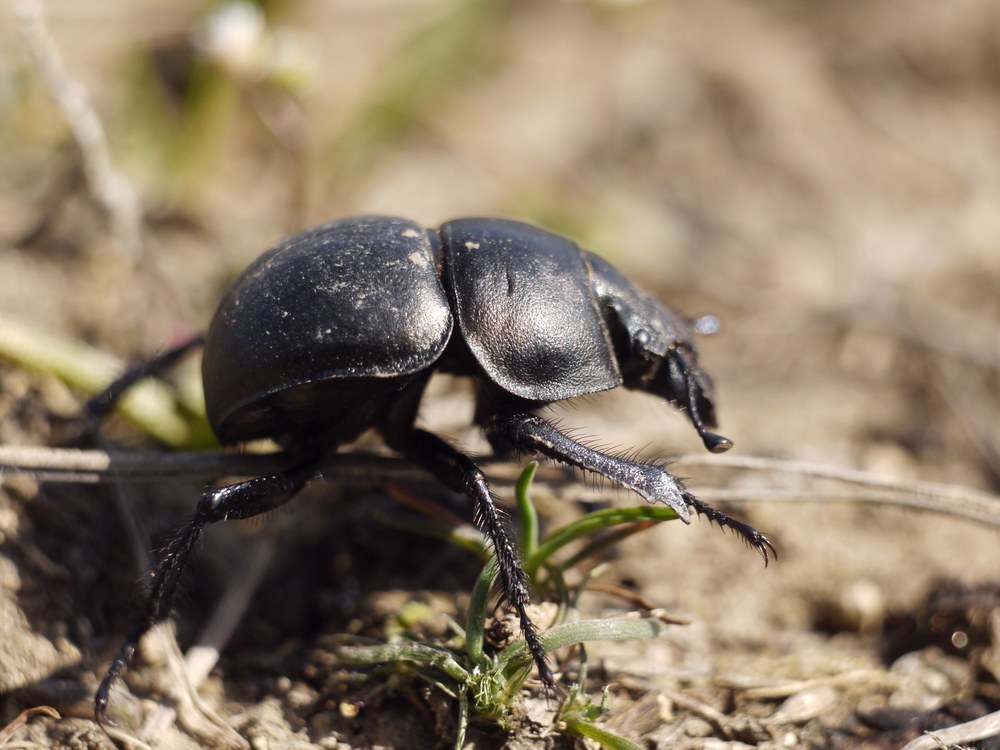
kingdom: Animalia
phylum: Arthropoda
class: Insecta
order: Coleoptera
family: Geotrupidae
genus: Lethrus
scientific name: Lethrus apterus
